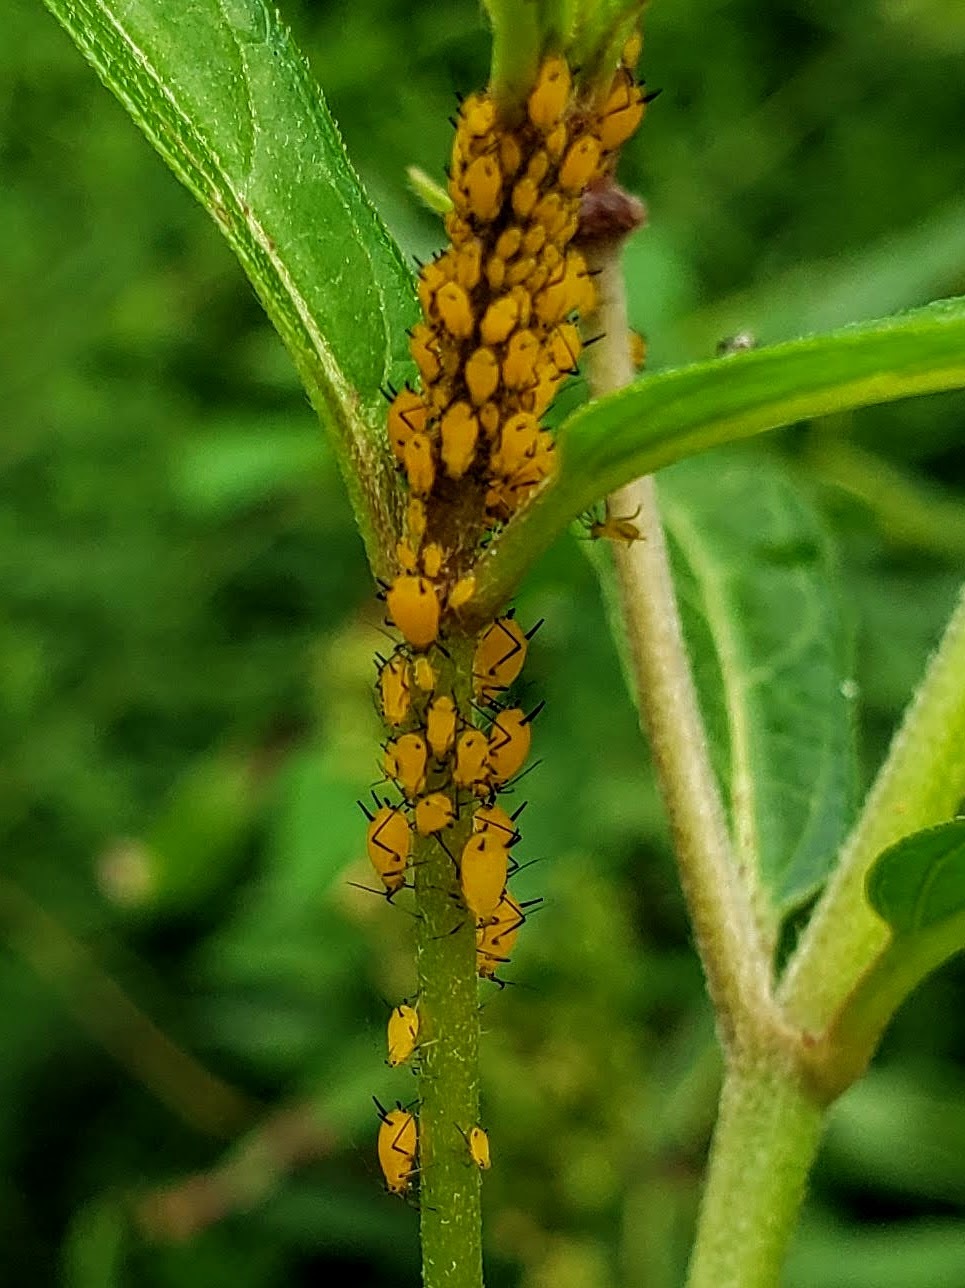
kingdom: Animalia
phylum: Arthropoda
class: Insecta
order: Hemiptera
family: Aphididae
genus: Aphis
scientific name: Aphis nerii
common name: Oleander aphid
